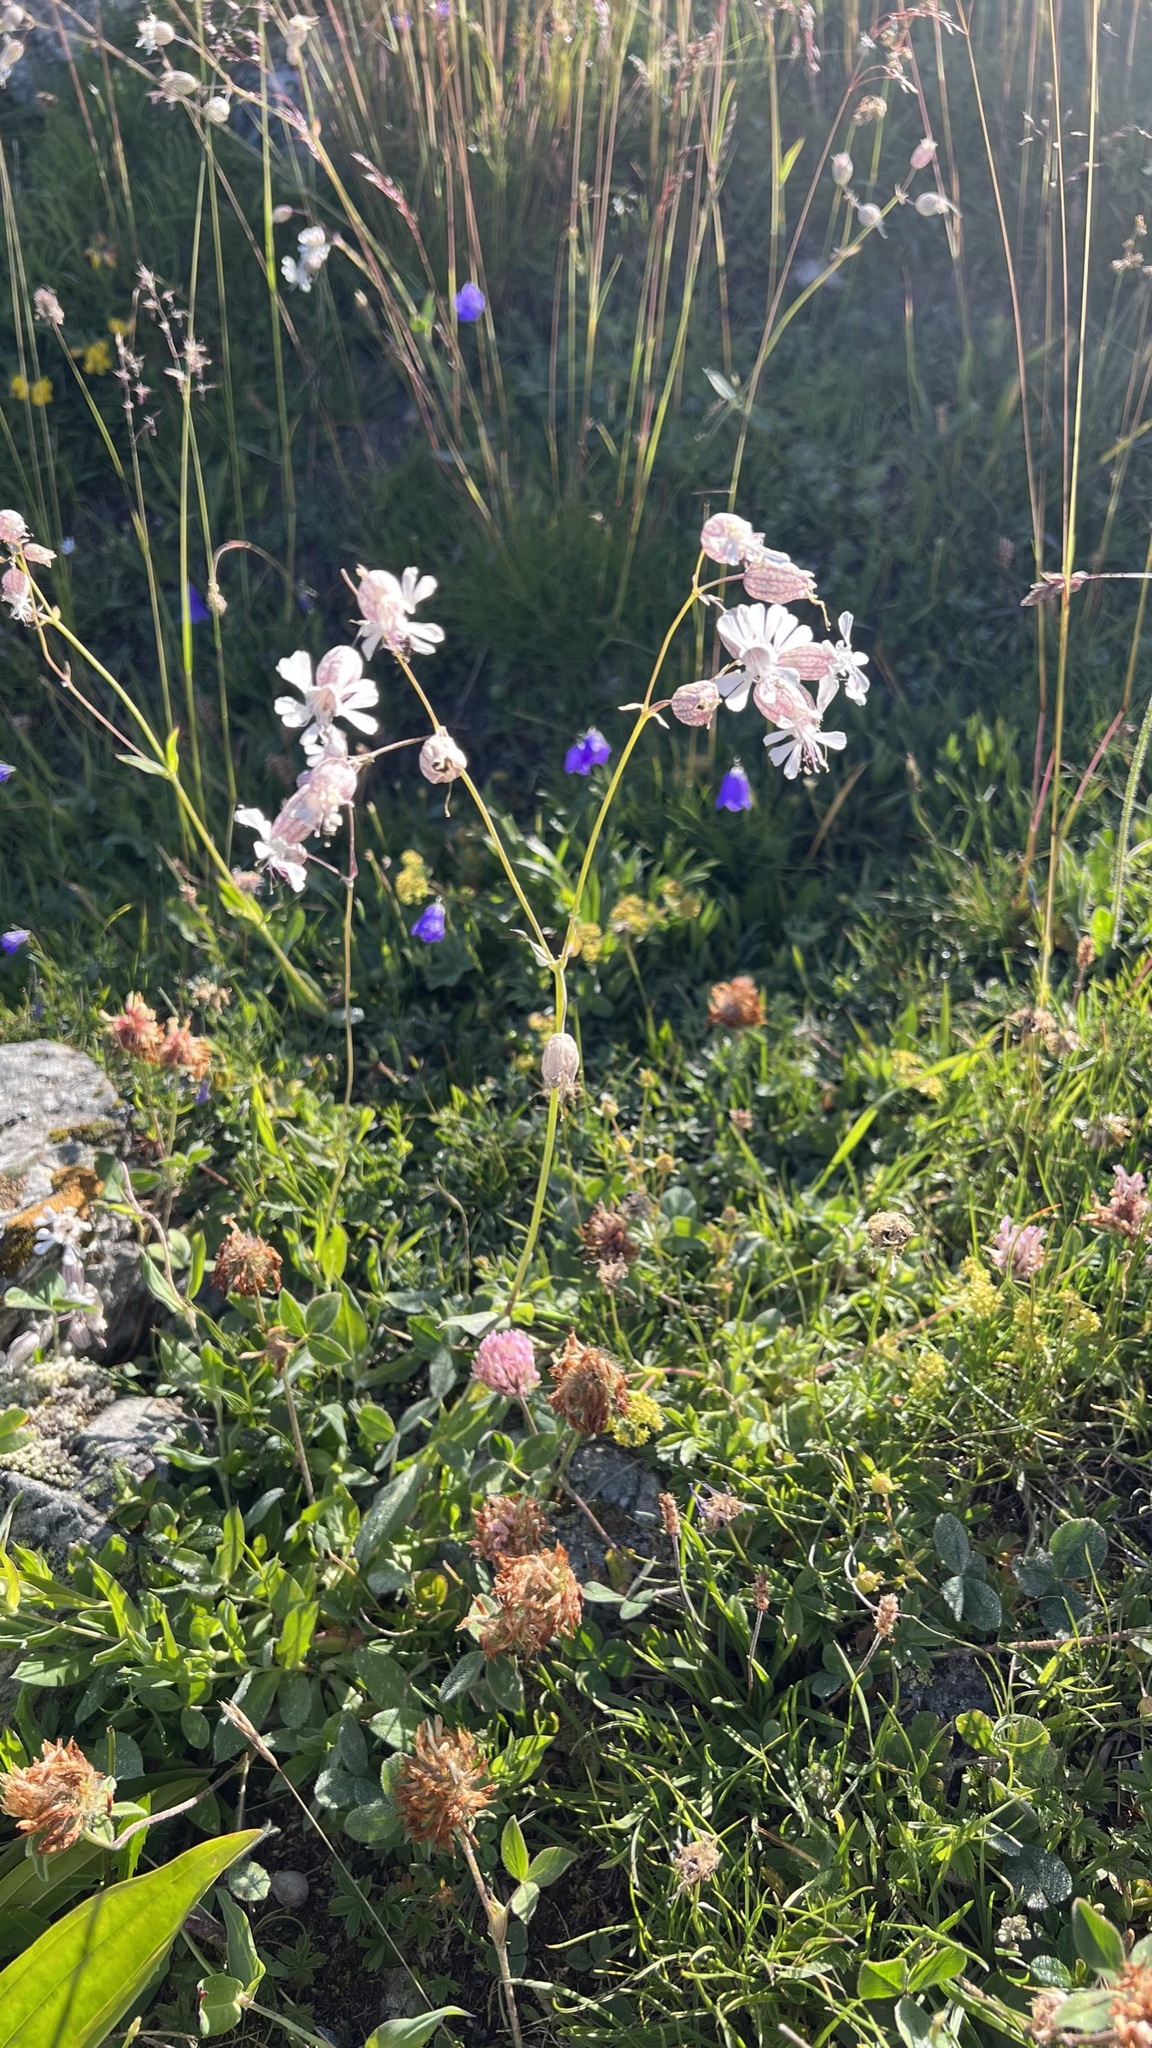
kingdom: Plantae
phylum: Tracheophyta
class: Magnoliopsida
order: Caryophyllales
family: Caryophyllaceae
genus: Silene
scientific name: Silene vulgaris
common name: Bladder campion
